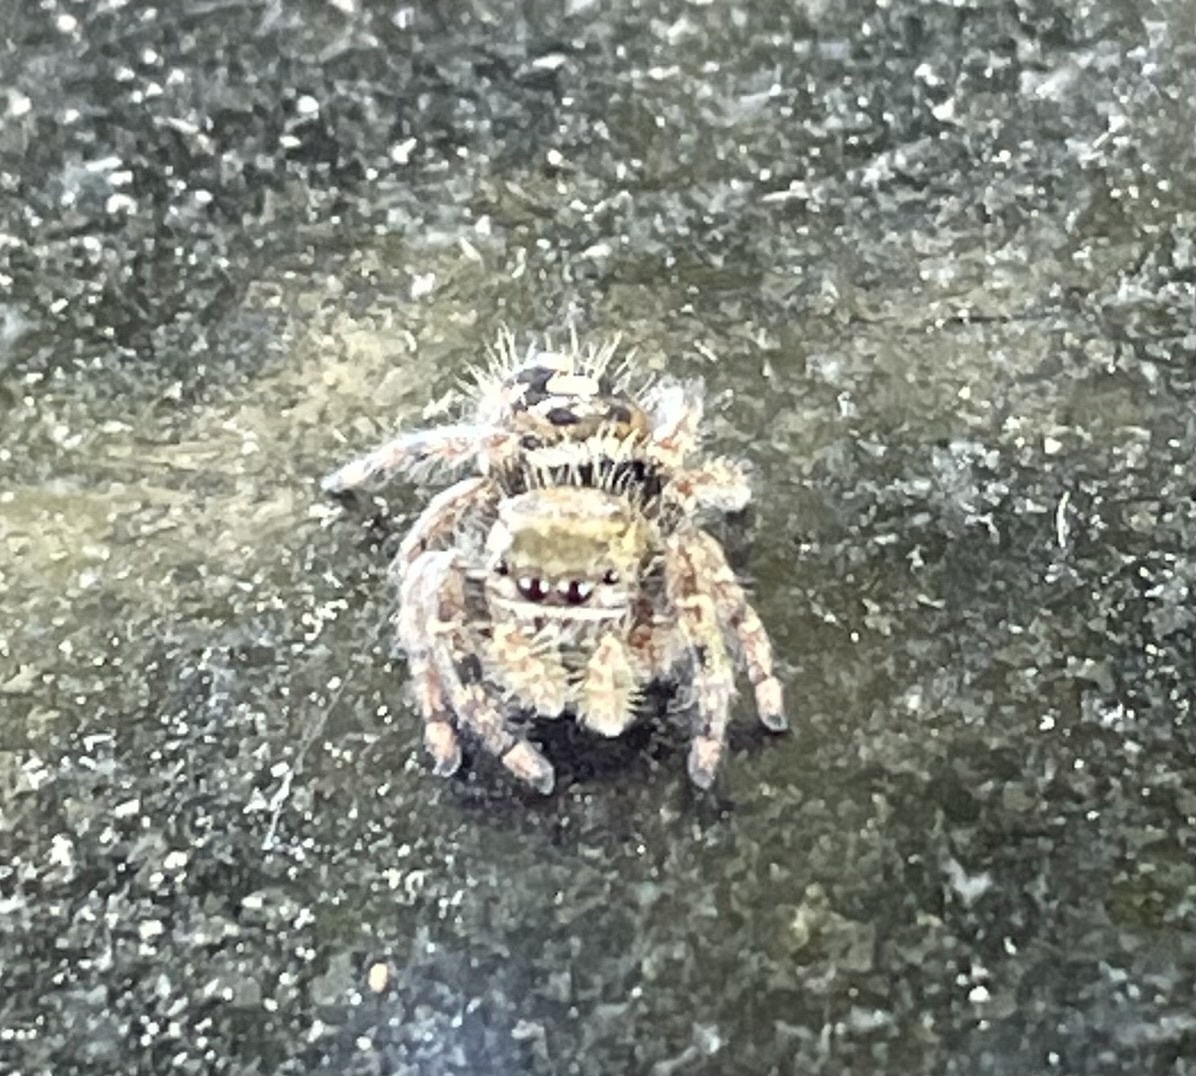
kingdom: Animalia
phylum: Arthropoda
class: Arachnida
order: Araneae
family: Salticidae
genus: Phidippus
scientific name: Phidippus audax
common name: Bold jumper
